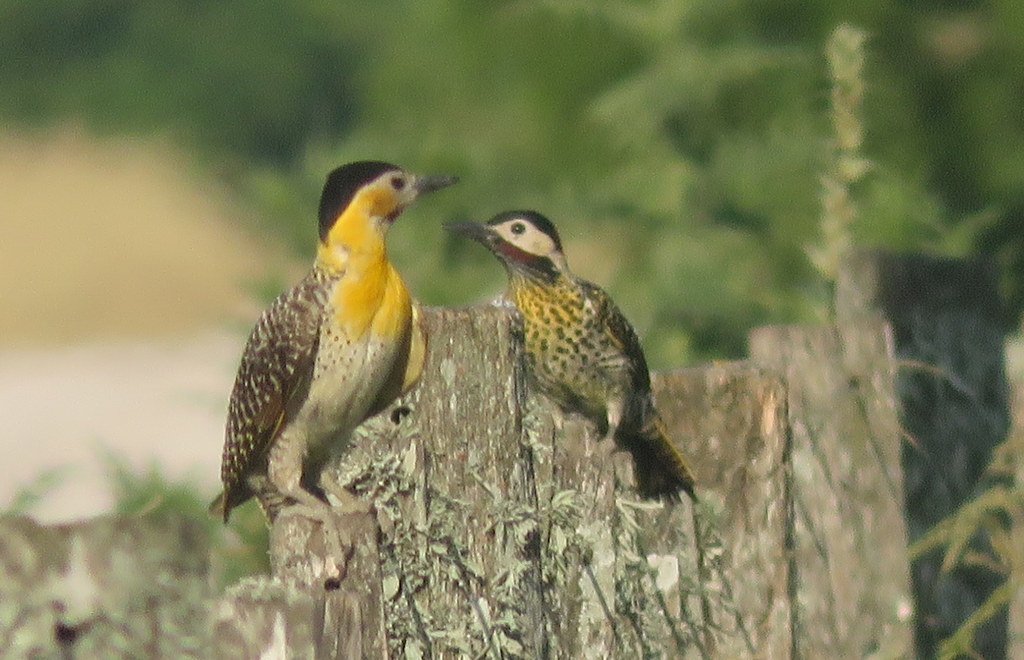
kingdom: Animalia
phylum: Chordata
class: Aves
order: Piciformes
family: Picidae
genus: Colaptes
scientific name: Colaptes campestris
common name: Campo flicker
